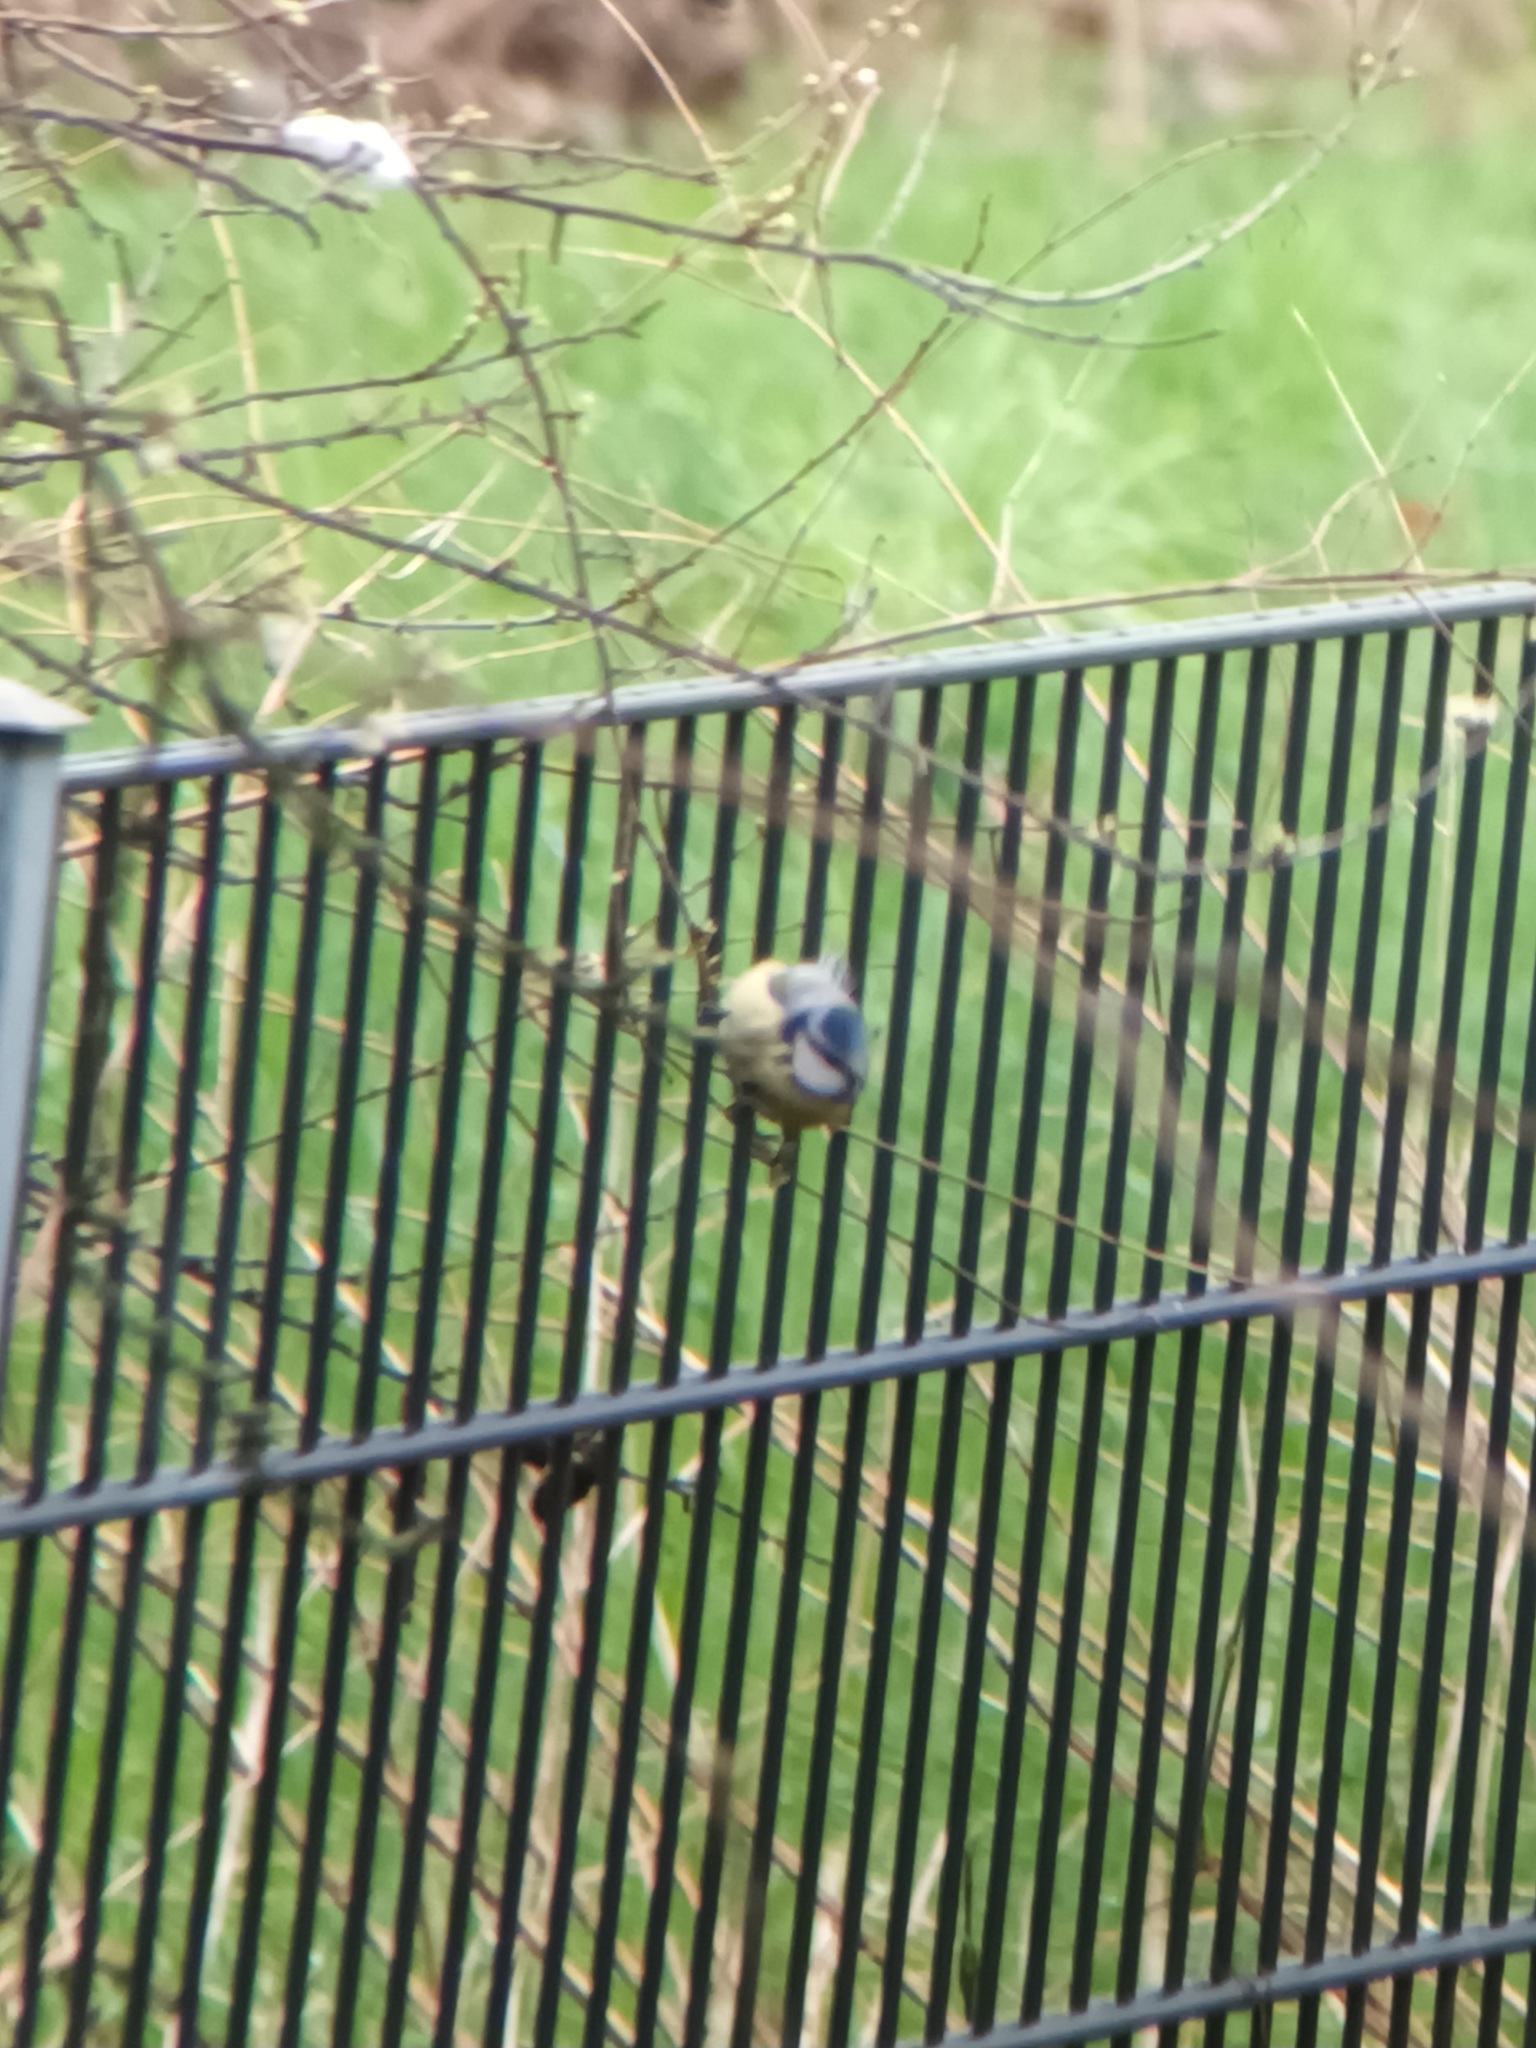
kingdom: Animalia
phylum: Chordata
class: Aves
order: Passeriformes
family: Paridae
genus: Cyanistes
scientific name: Cyanistes caeruleus
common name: Eurasian blue tit
